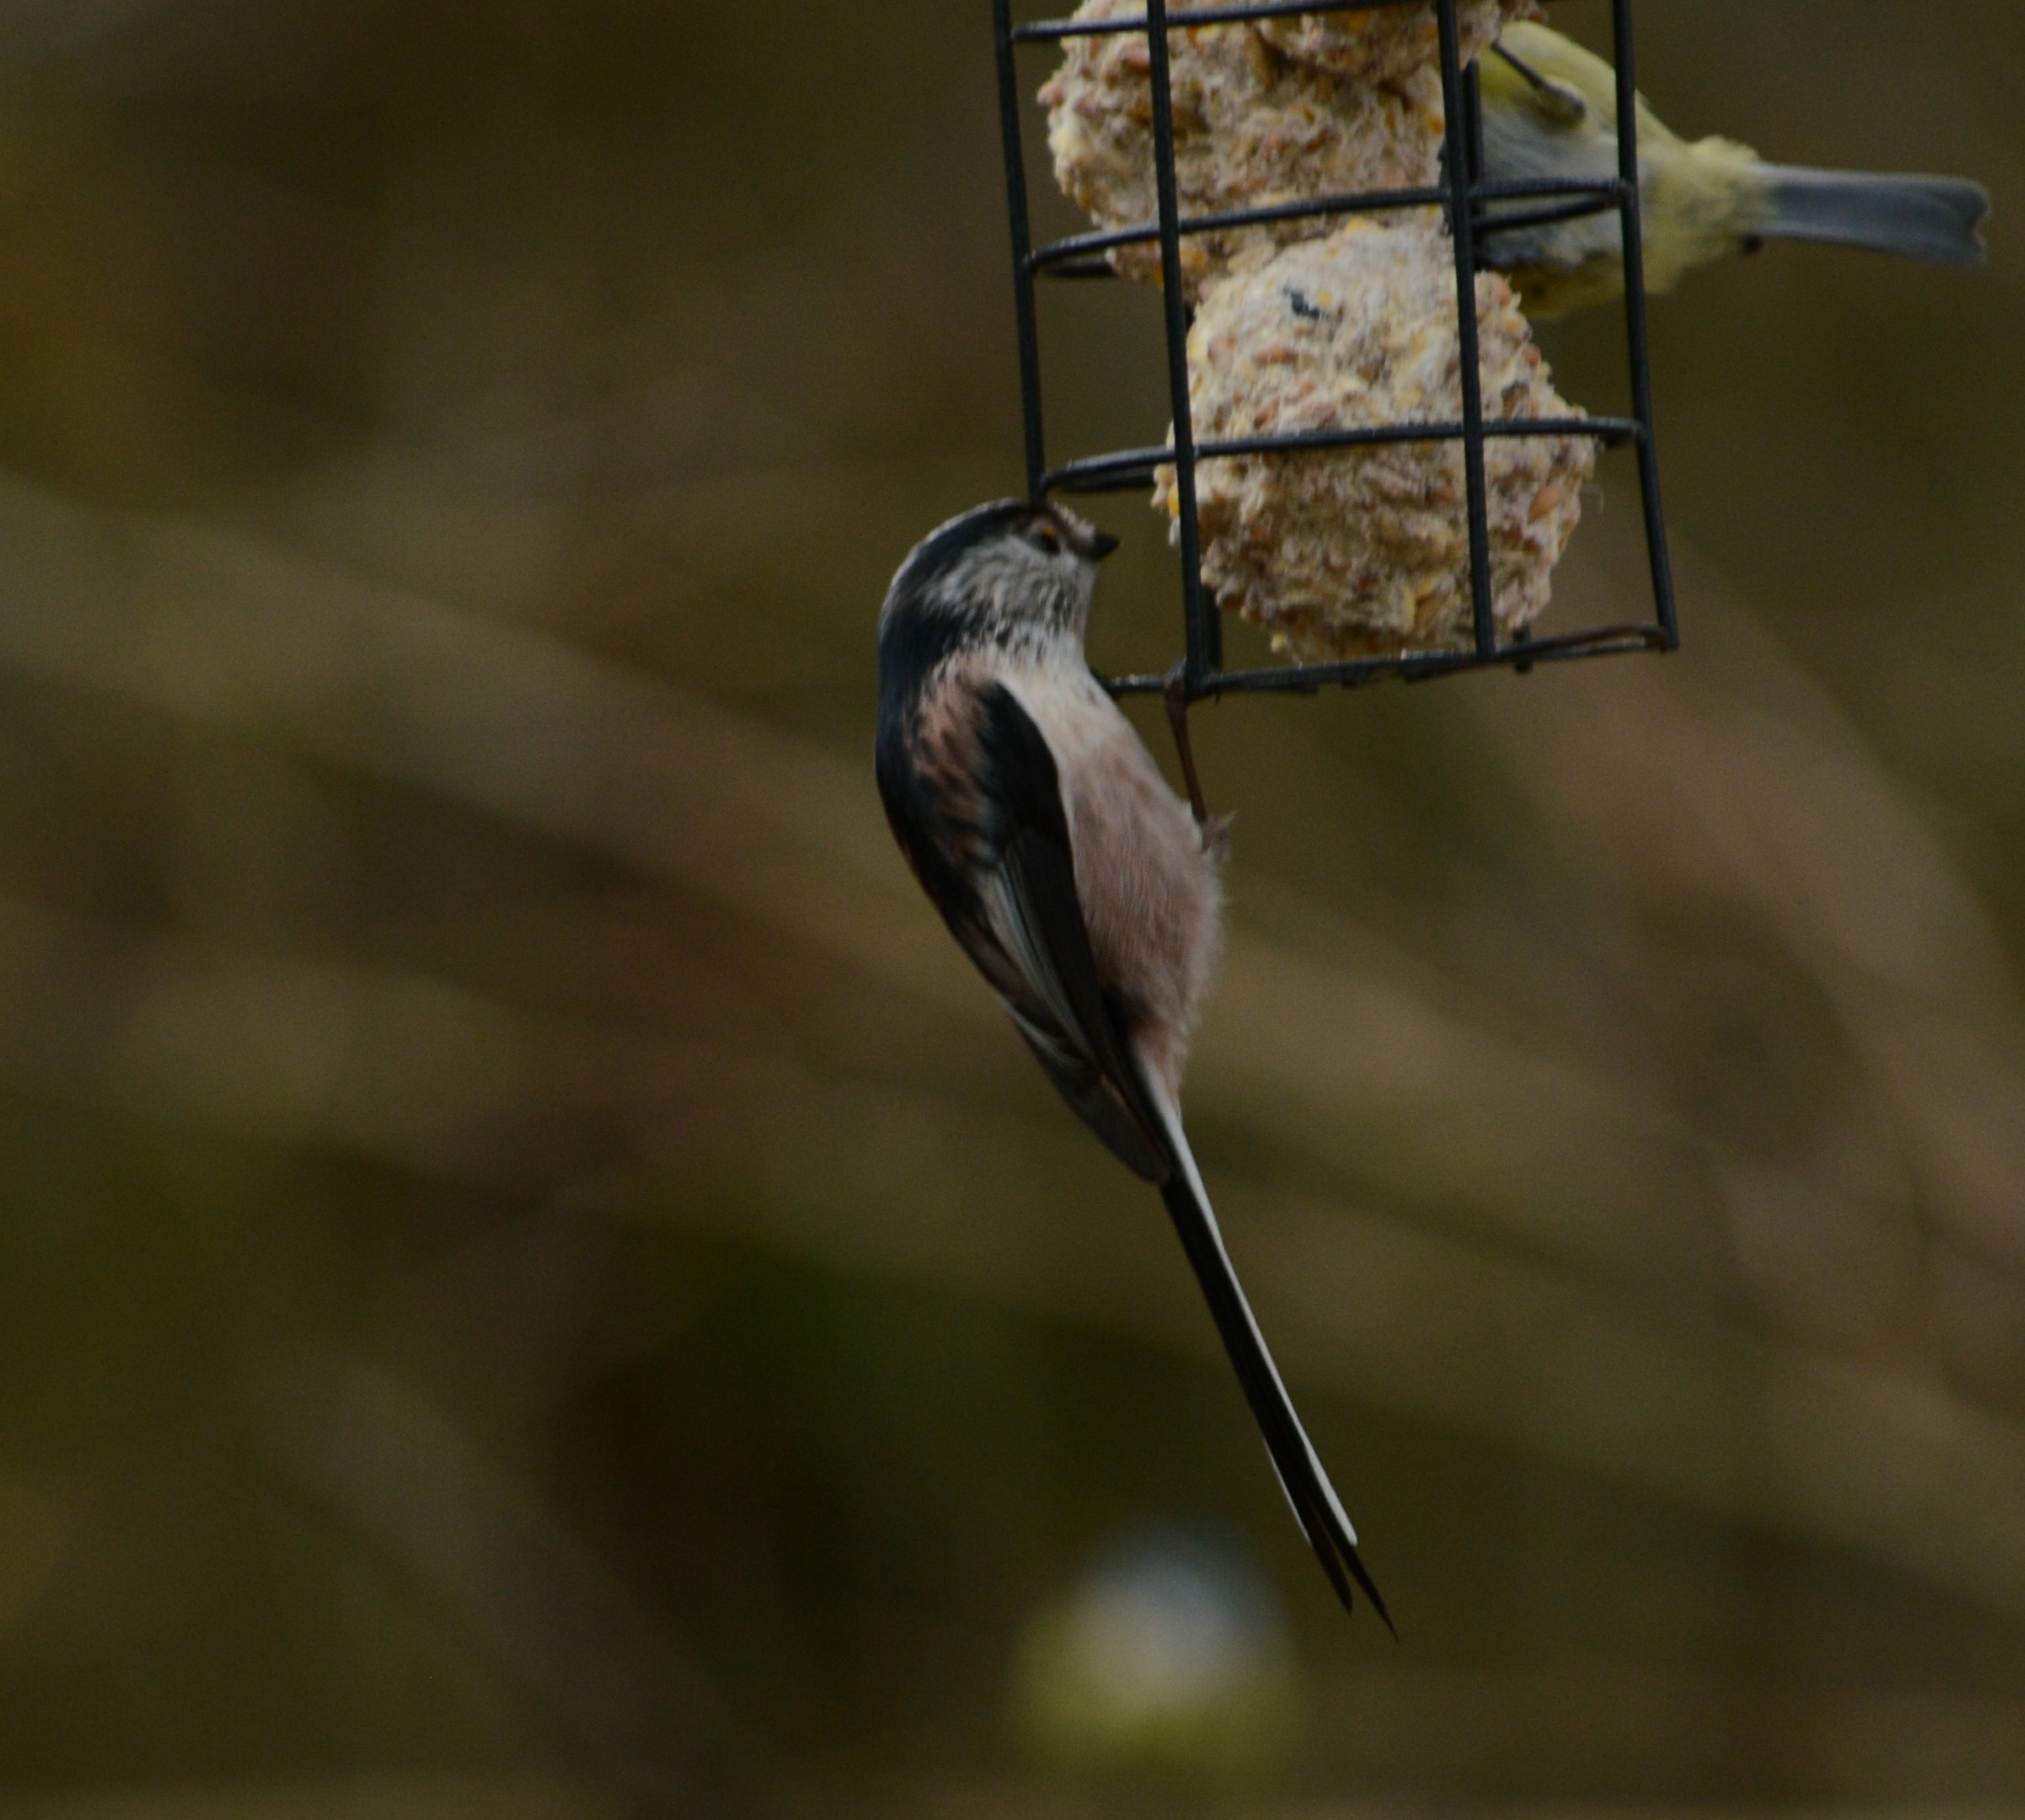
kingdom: Animalia
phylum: Chordata
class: Aves
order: Passeriformes
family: Aegithalidae
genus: Aegithalos
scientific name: Aegithalos caudatus
